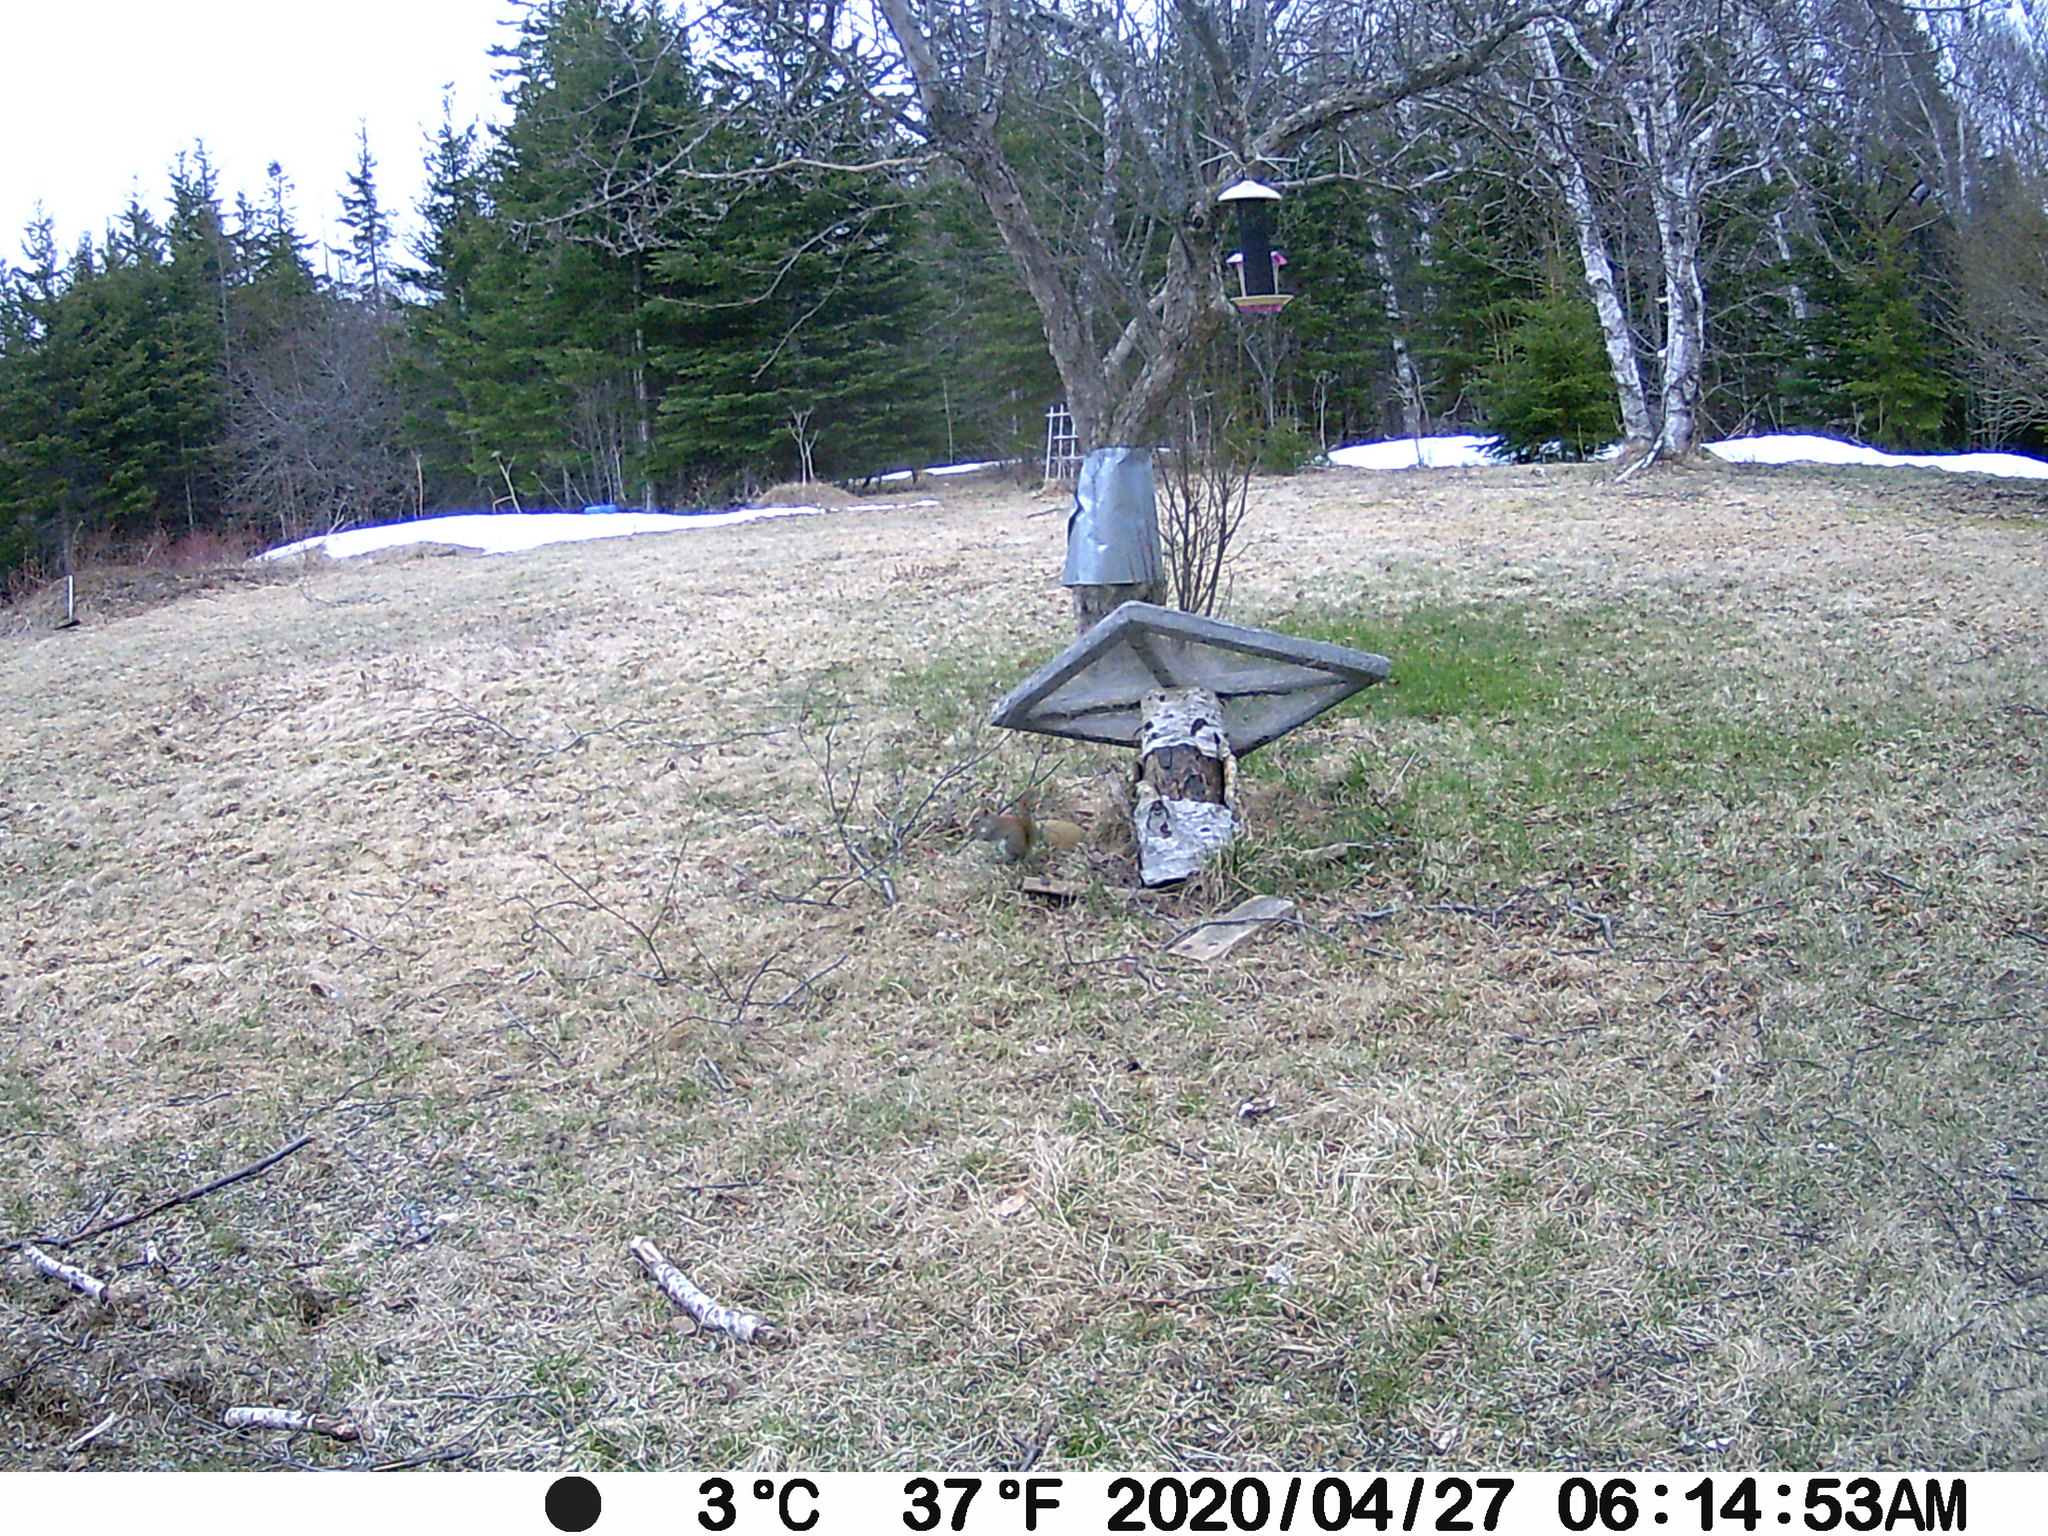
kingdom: Animalia
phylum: Chordata
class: Mammalia
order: Rodentia
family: Sciuridae
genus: Tamiasciurus
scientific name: Tamiasciurus hudsonicus
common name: Red squirrel
